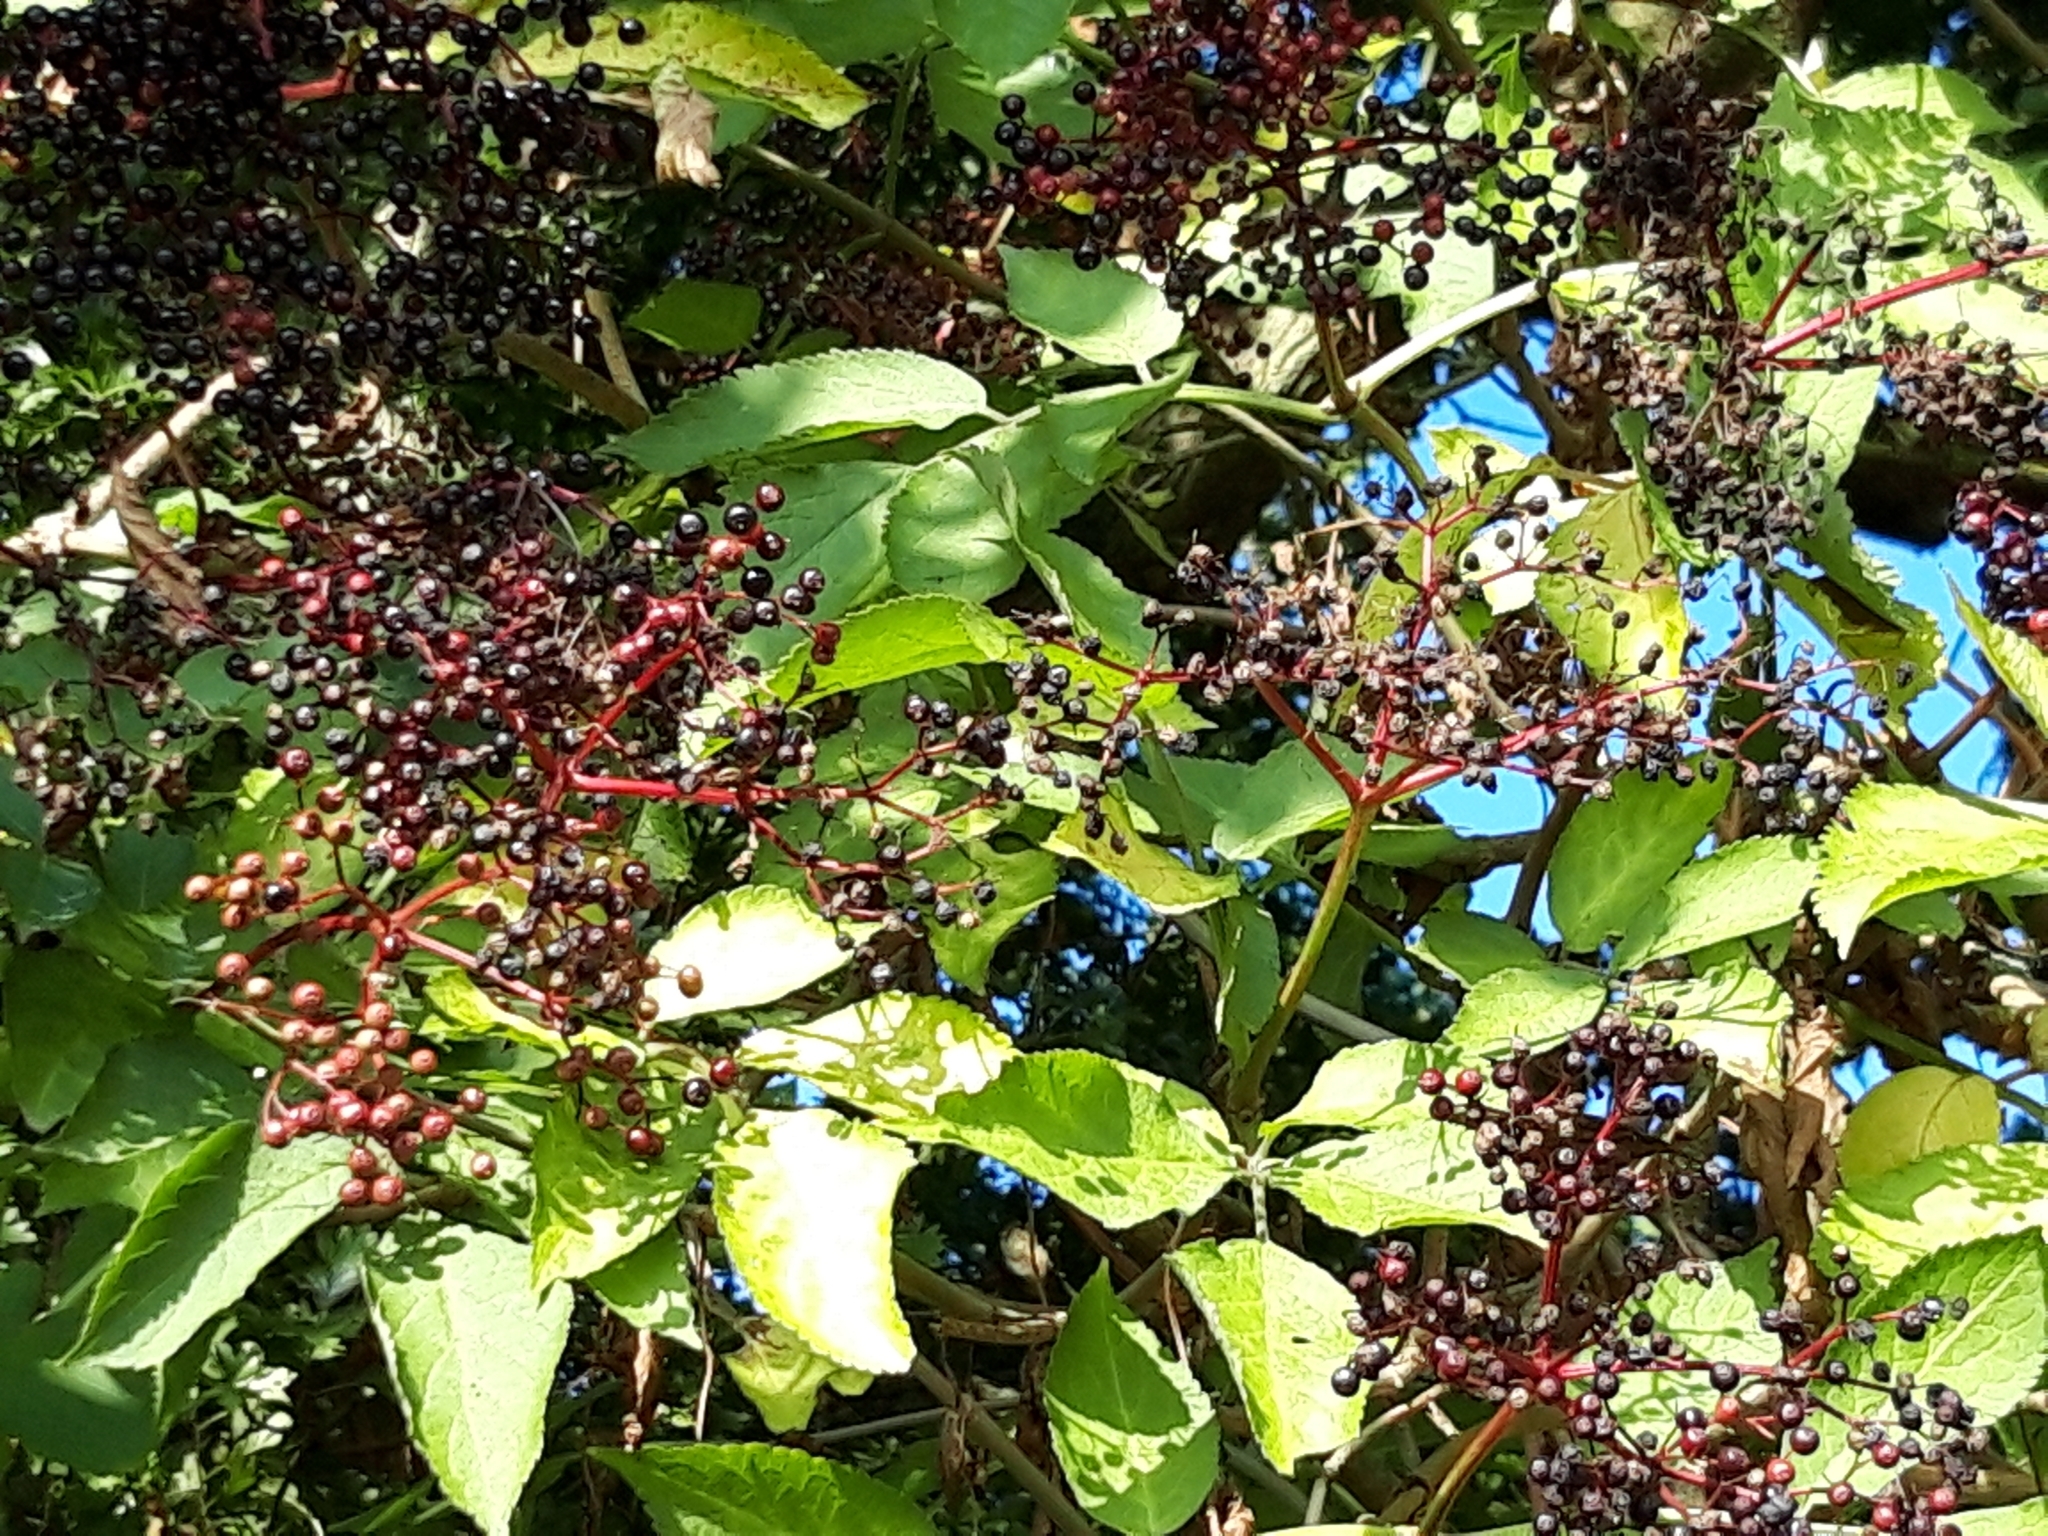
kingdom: Plantae
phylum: Tracheophyta
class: Magnoliopsida
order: Dipsacales
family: Viburnaceae
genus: Sambucus
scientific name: Sambucus nigra
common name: Elder
